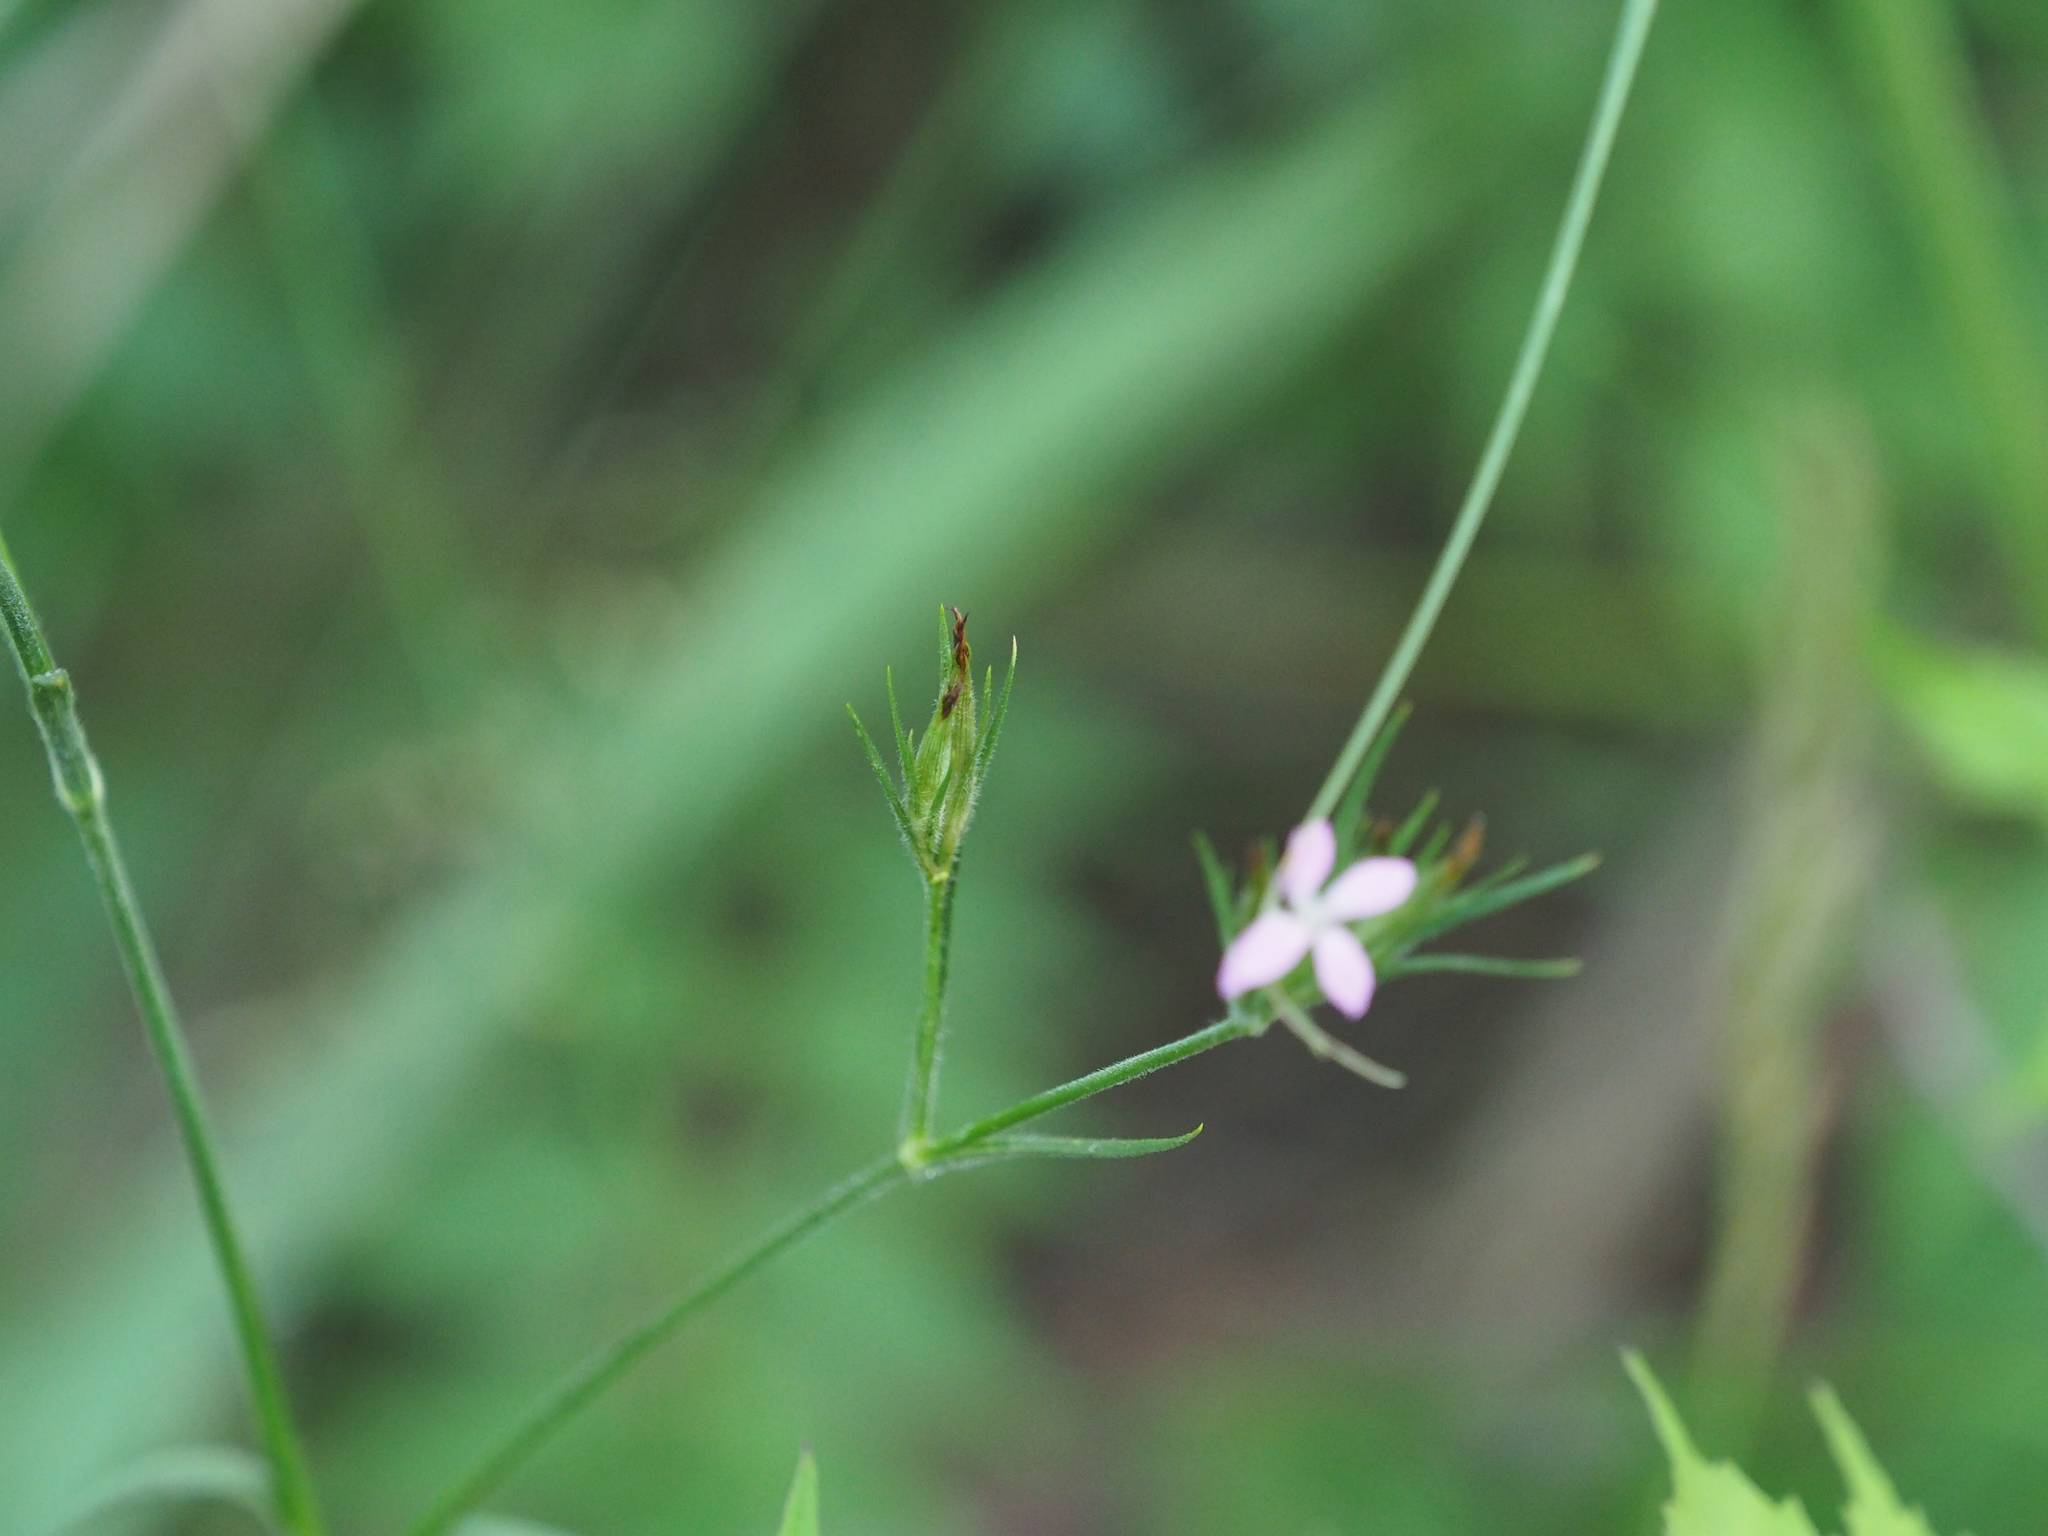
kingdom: Plantae
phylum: Tracheophyta
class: Magnoliopsida
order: Caryophyllales
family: Caryophyllaceae
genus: Dianthus
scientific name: Dianthus armeria
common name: Deptford pink
